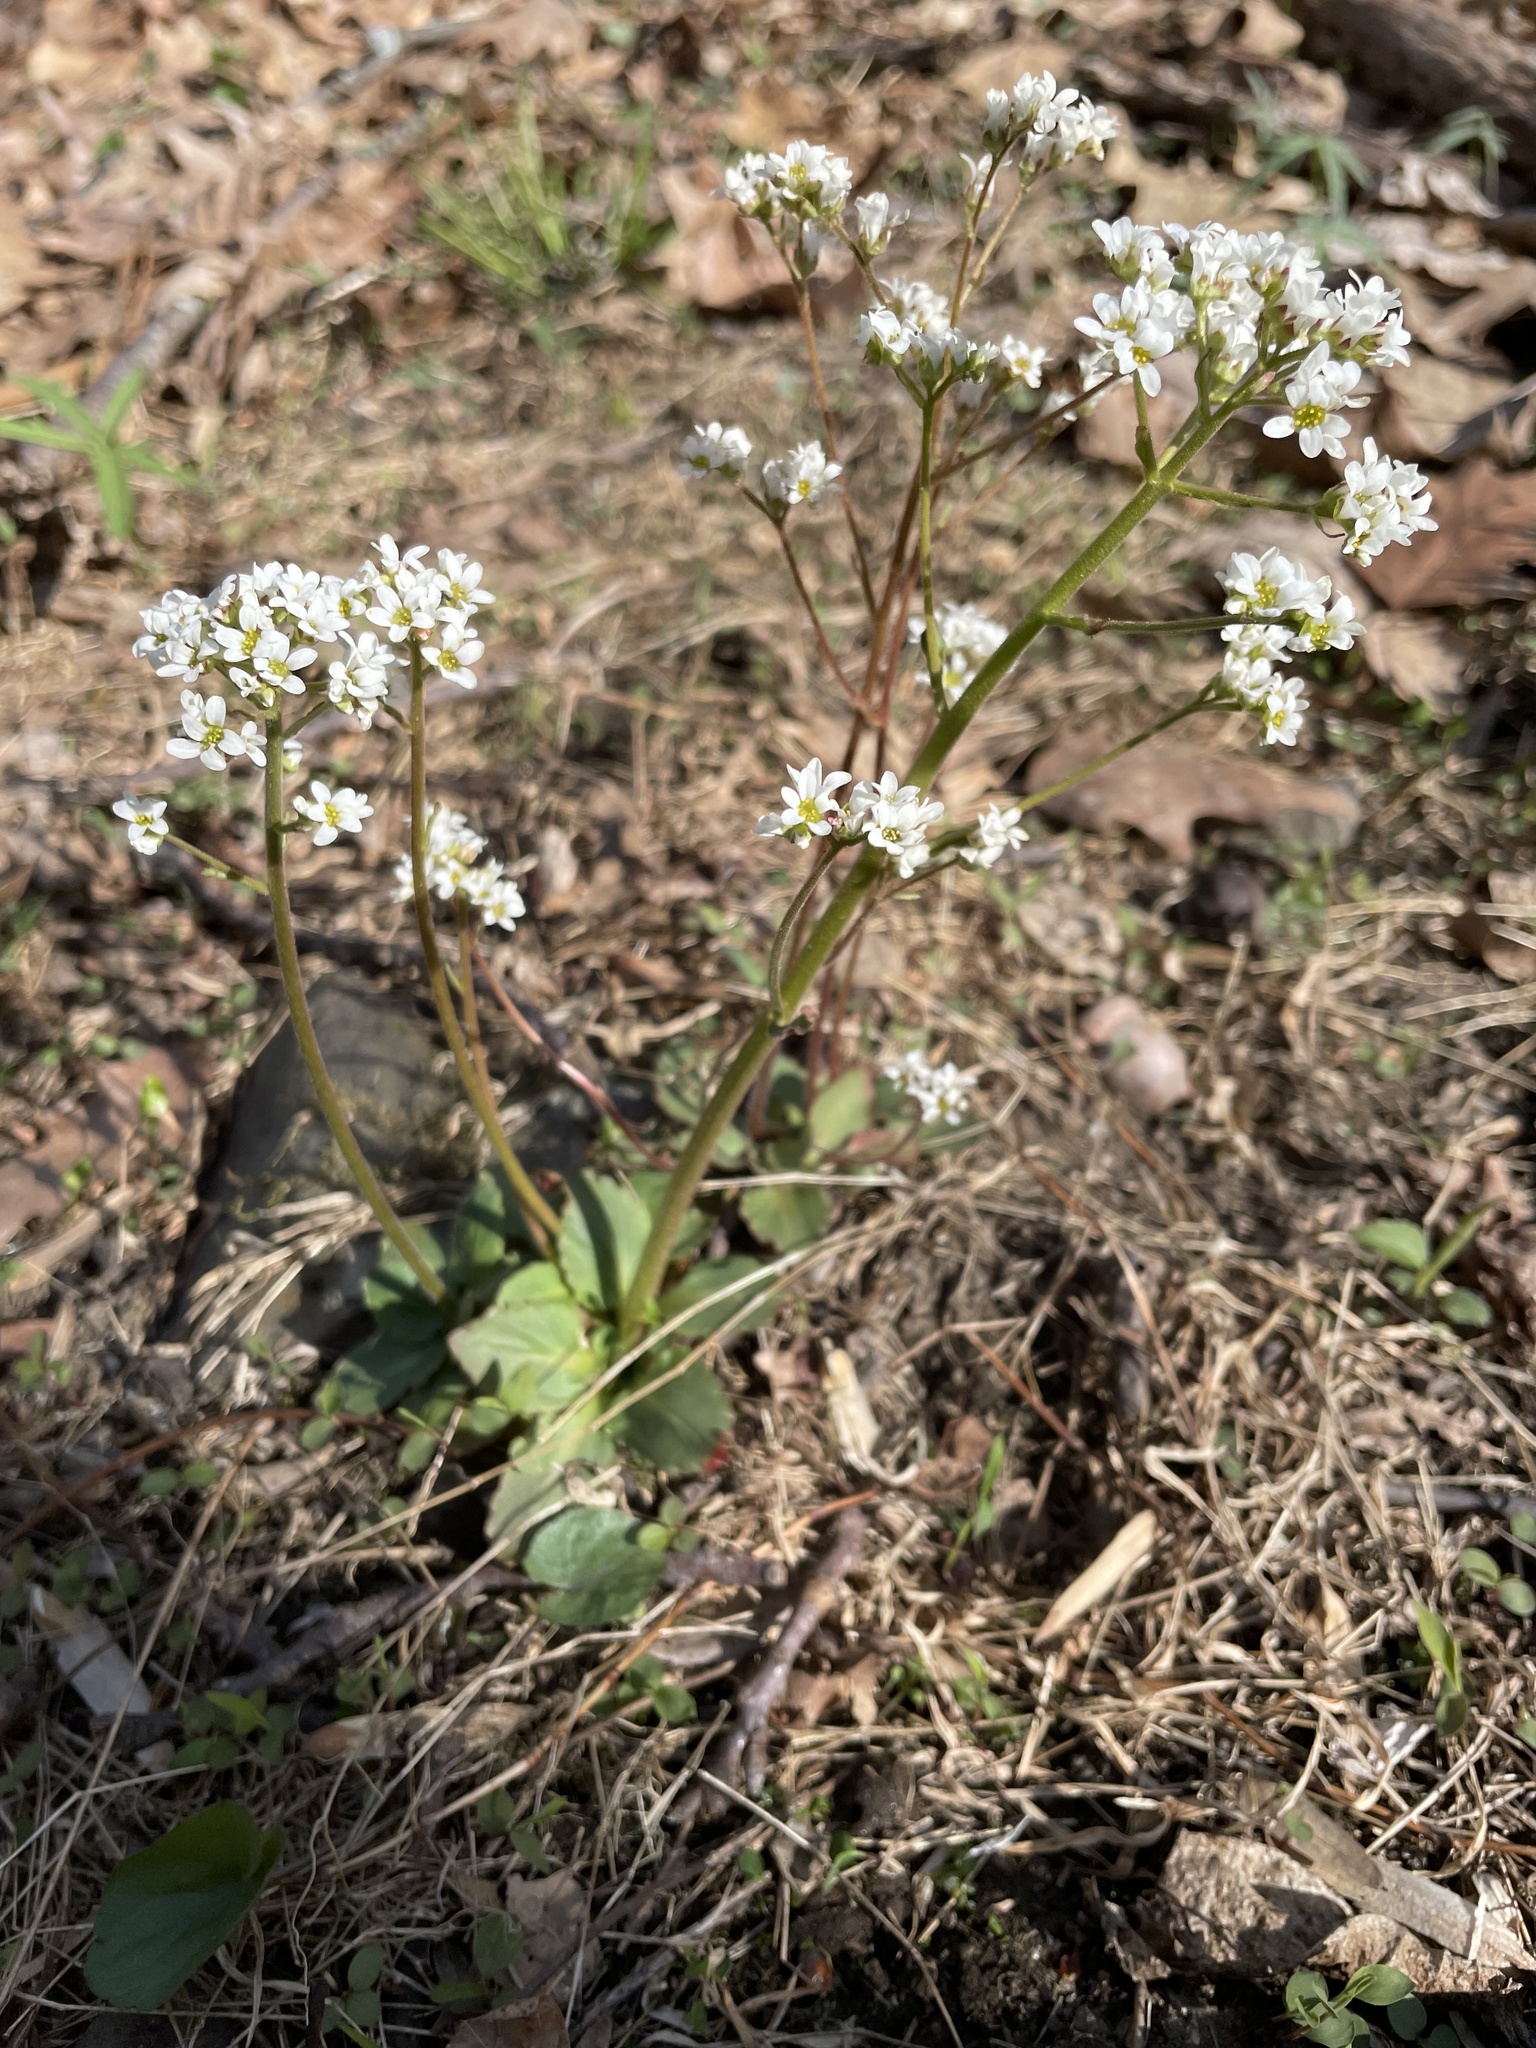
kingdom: Plantae
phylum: Tracheophyta
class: Magnoliopsida
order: Saxifragales
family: Saxifragaceae
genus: Micranthes
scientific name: Micranthes virginiensis
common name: Early saxifrage
